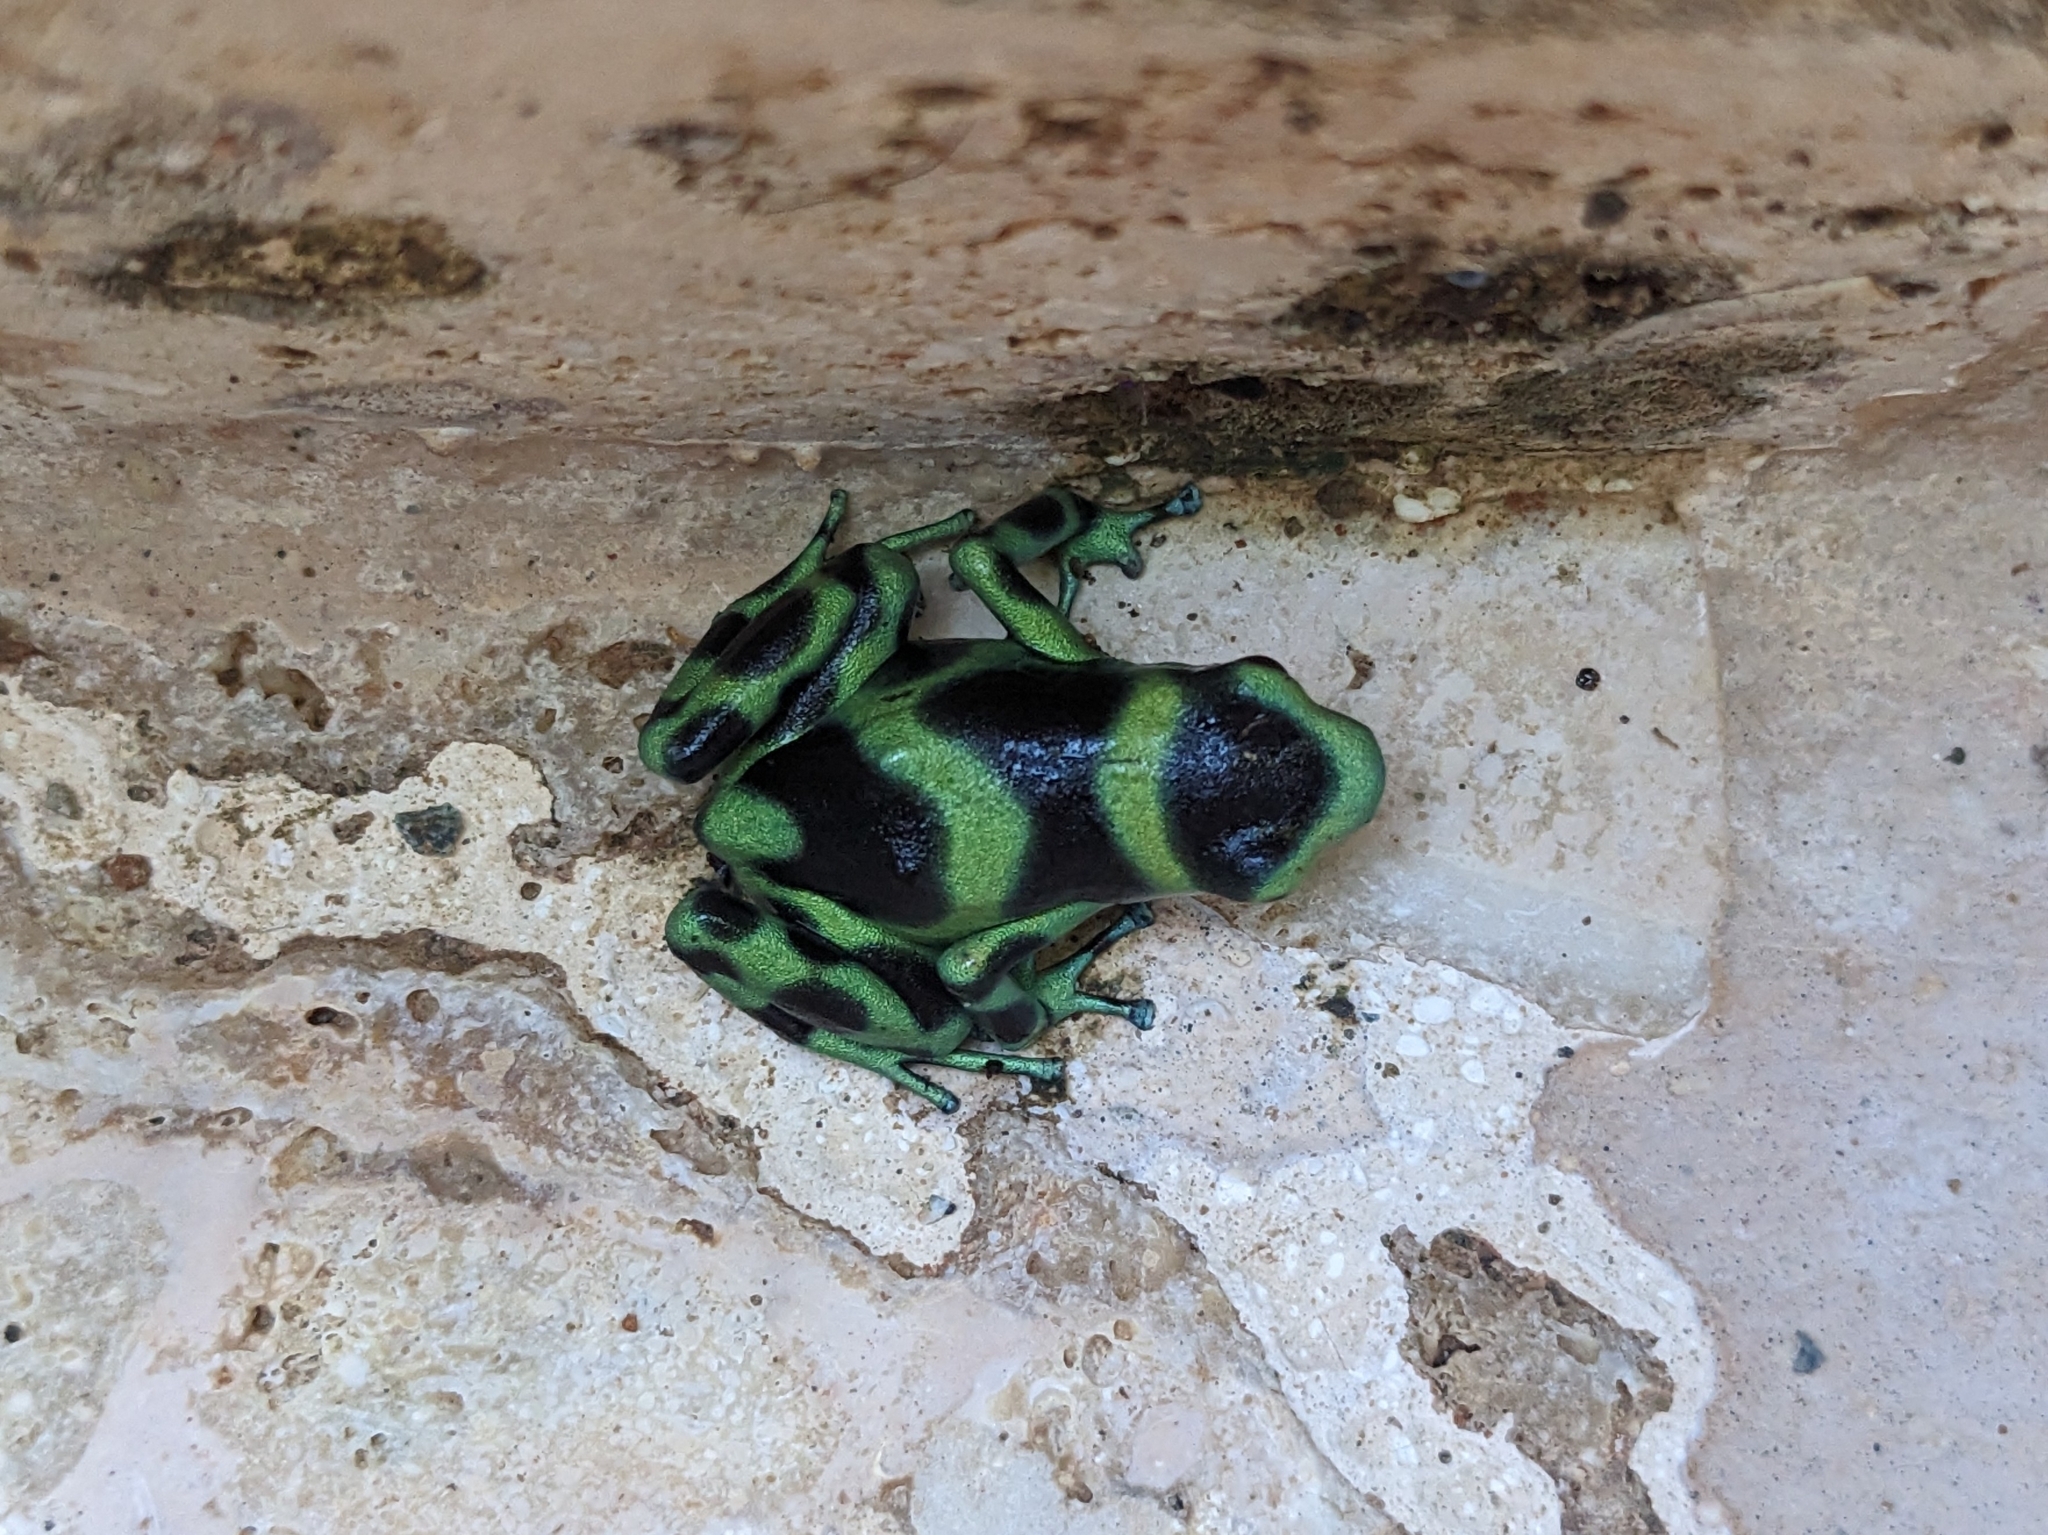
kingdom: Animalia
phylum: Chordata
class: Amphibia
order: Anura
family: Dendrobatidae
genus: Dendrobates
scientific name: Dendrobates auratus
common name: Green and black poison dart frog
